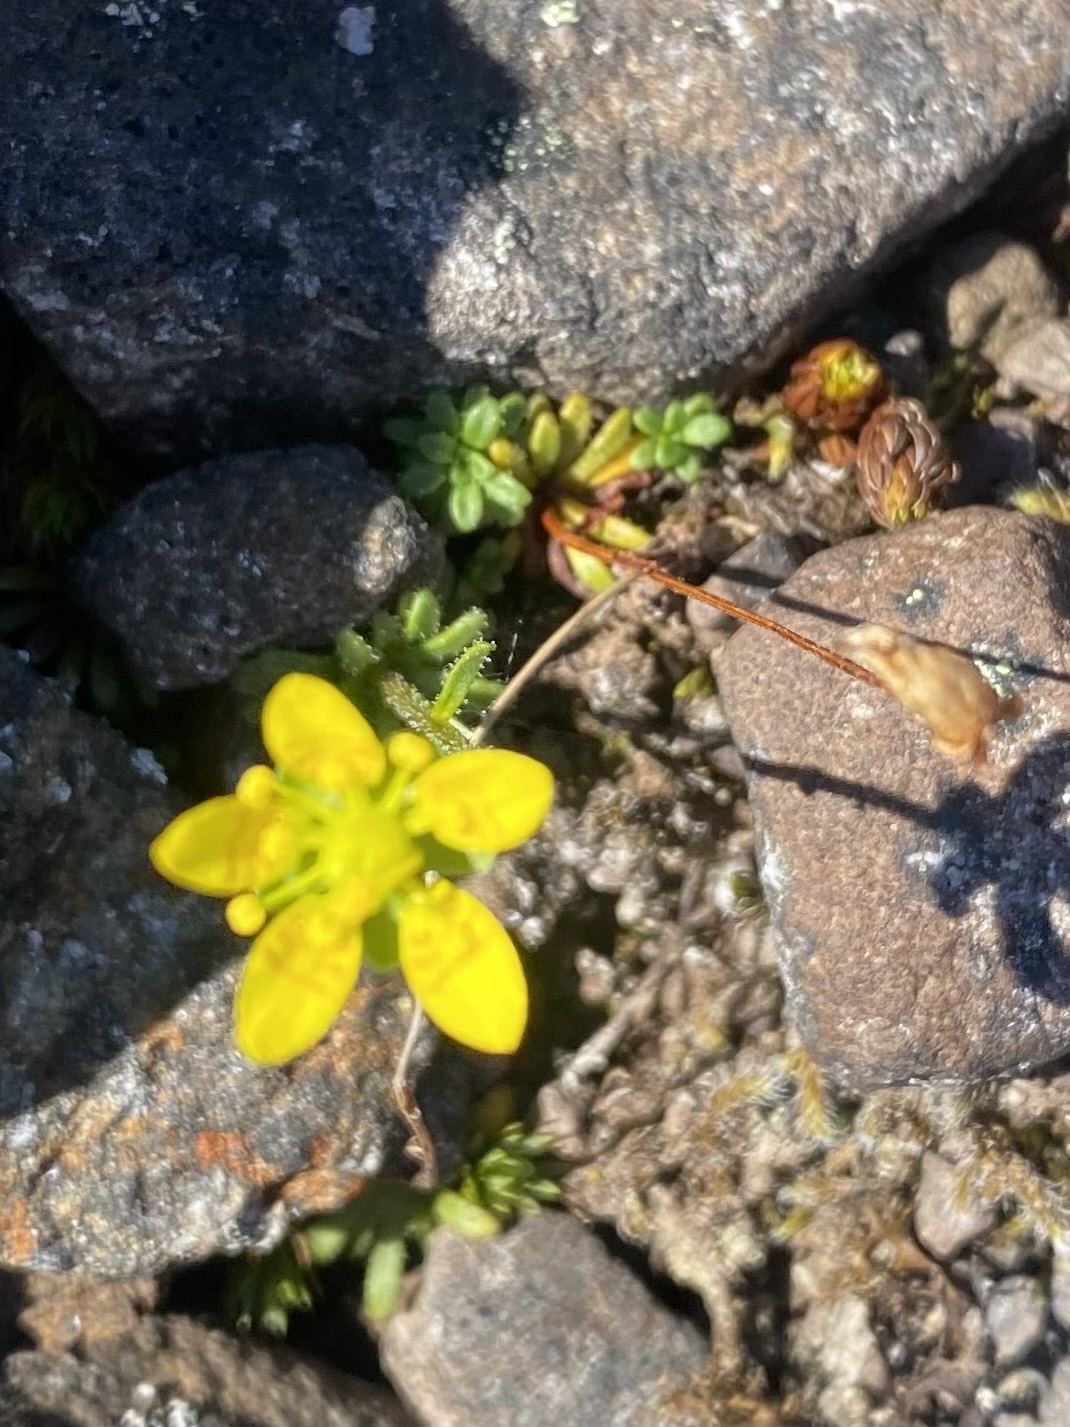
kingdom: Plantae
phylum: Tracheophyta
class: Magnoliopsida
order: Saxifragales
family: Saxifragaceae
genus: Saxifraga
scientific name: Saxifraga serpyllifolia
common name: Thyme-leaved saxifrage
